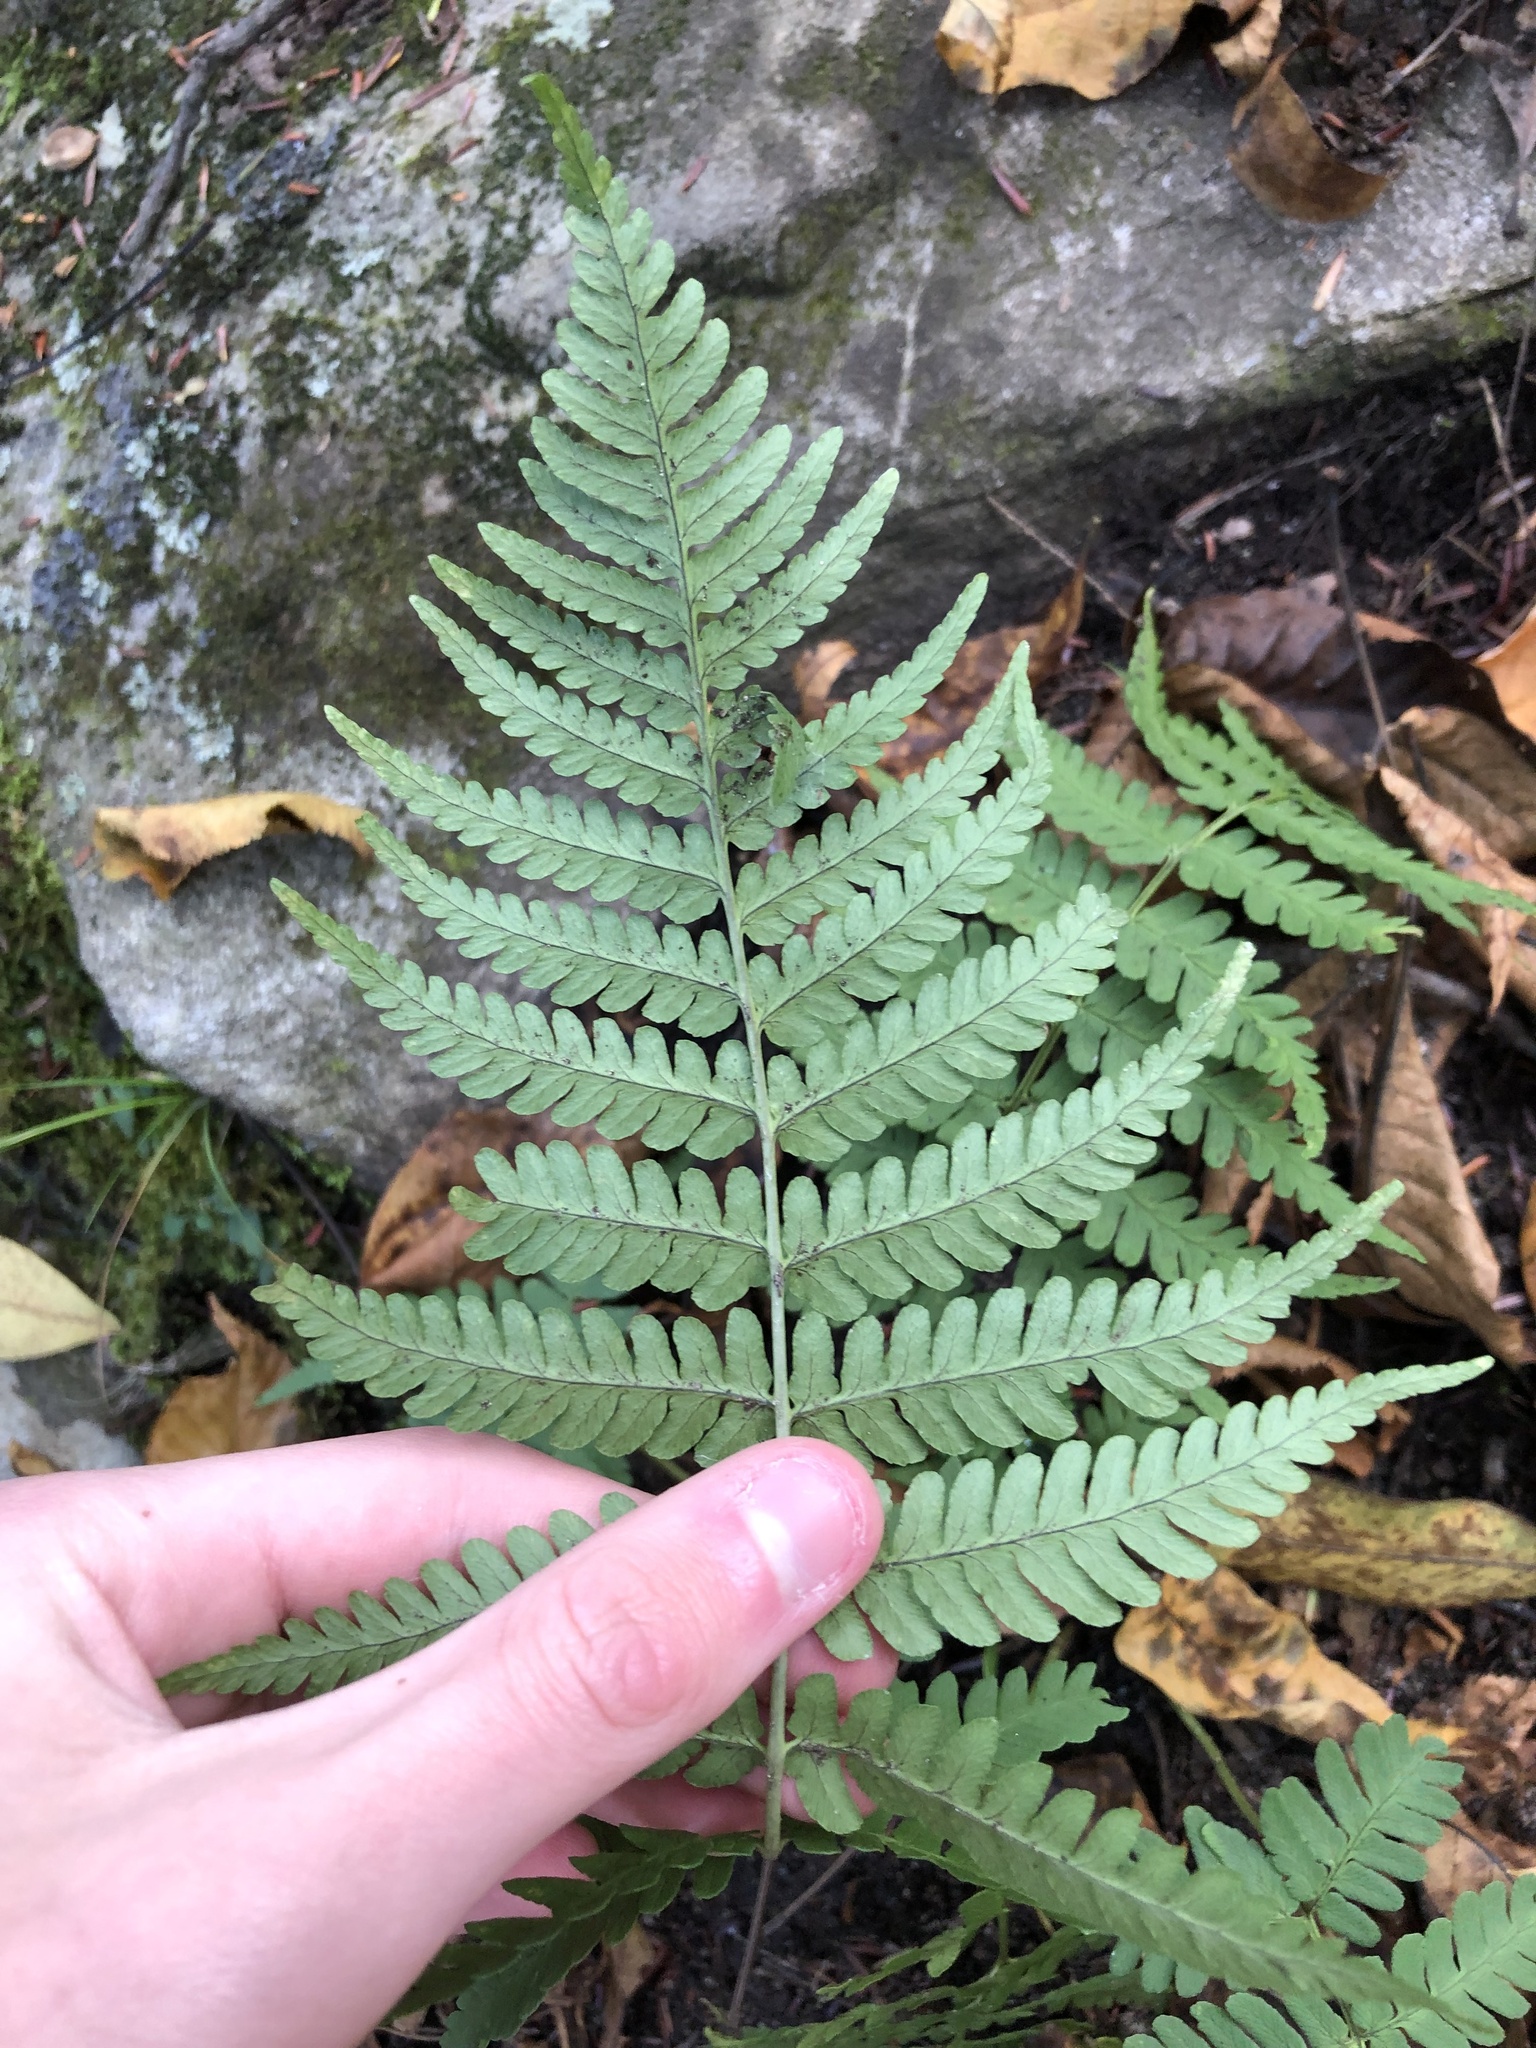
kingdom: Plantae
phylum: Tracheophyta
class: Polypodiopsida
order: Polypodiales
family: Dryopteridaceae
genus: Dryopteris
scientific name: Dryopteris marginalis
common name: Marginal wood fern
